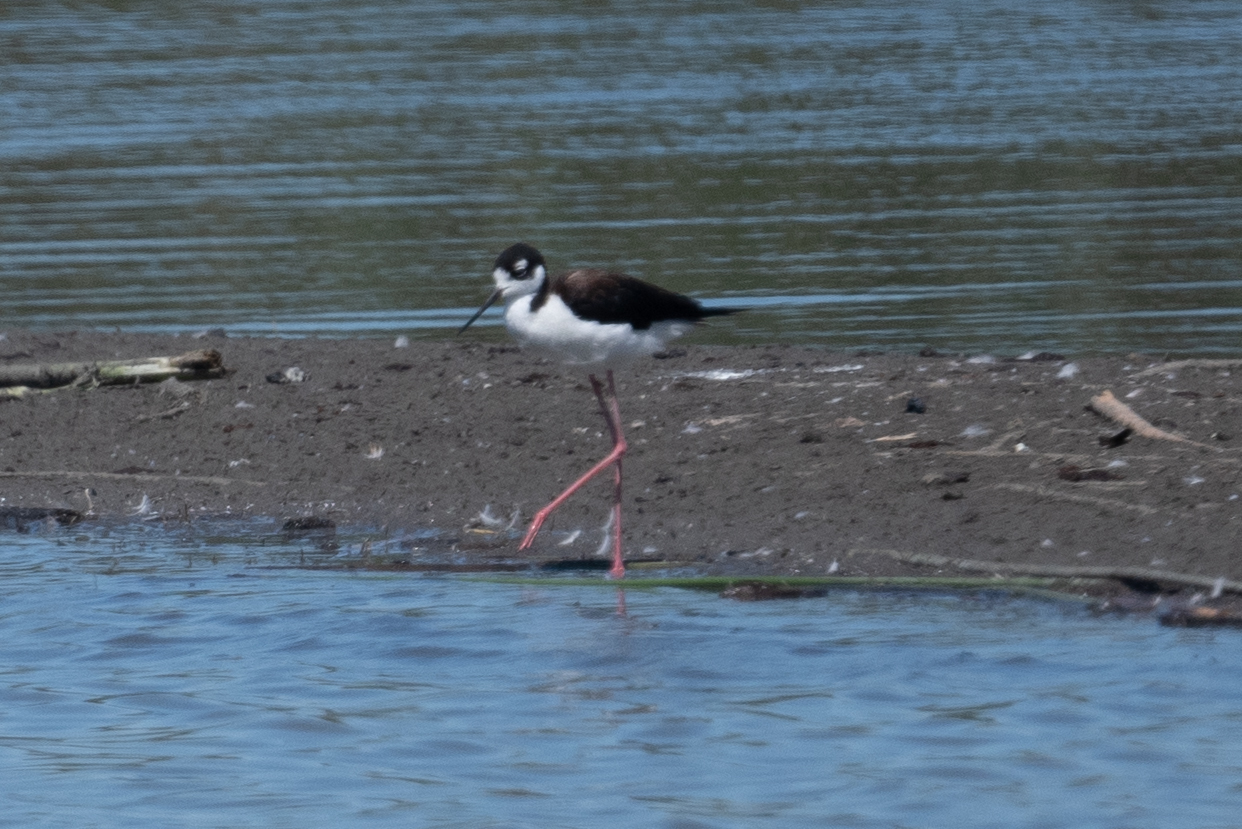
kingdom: Animalia
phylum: Chordata
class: Aves
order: Charadriiformes
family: Recurvirostridae
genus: Himantopus
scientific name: Himantopus mexicanus
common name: Black-necked stilt
